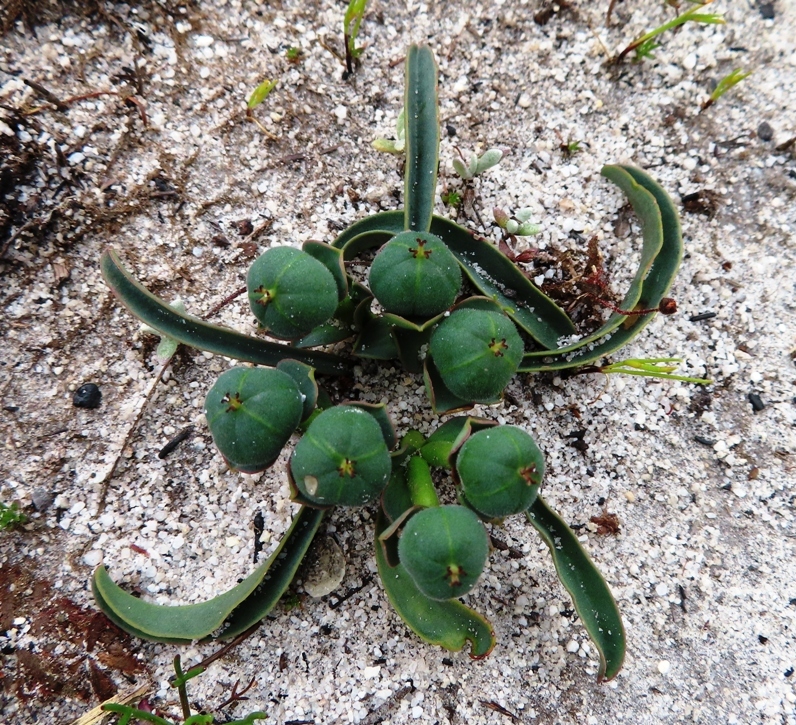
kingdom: Plantae
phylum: Tracheophyta
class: Magnoliopsida
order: Malpighiales
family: Euphorbiaceae
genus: Euphorbia
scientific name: Euphorbia silenifolia
